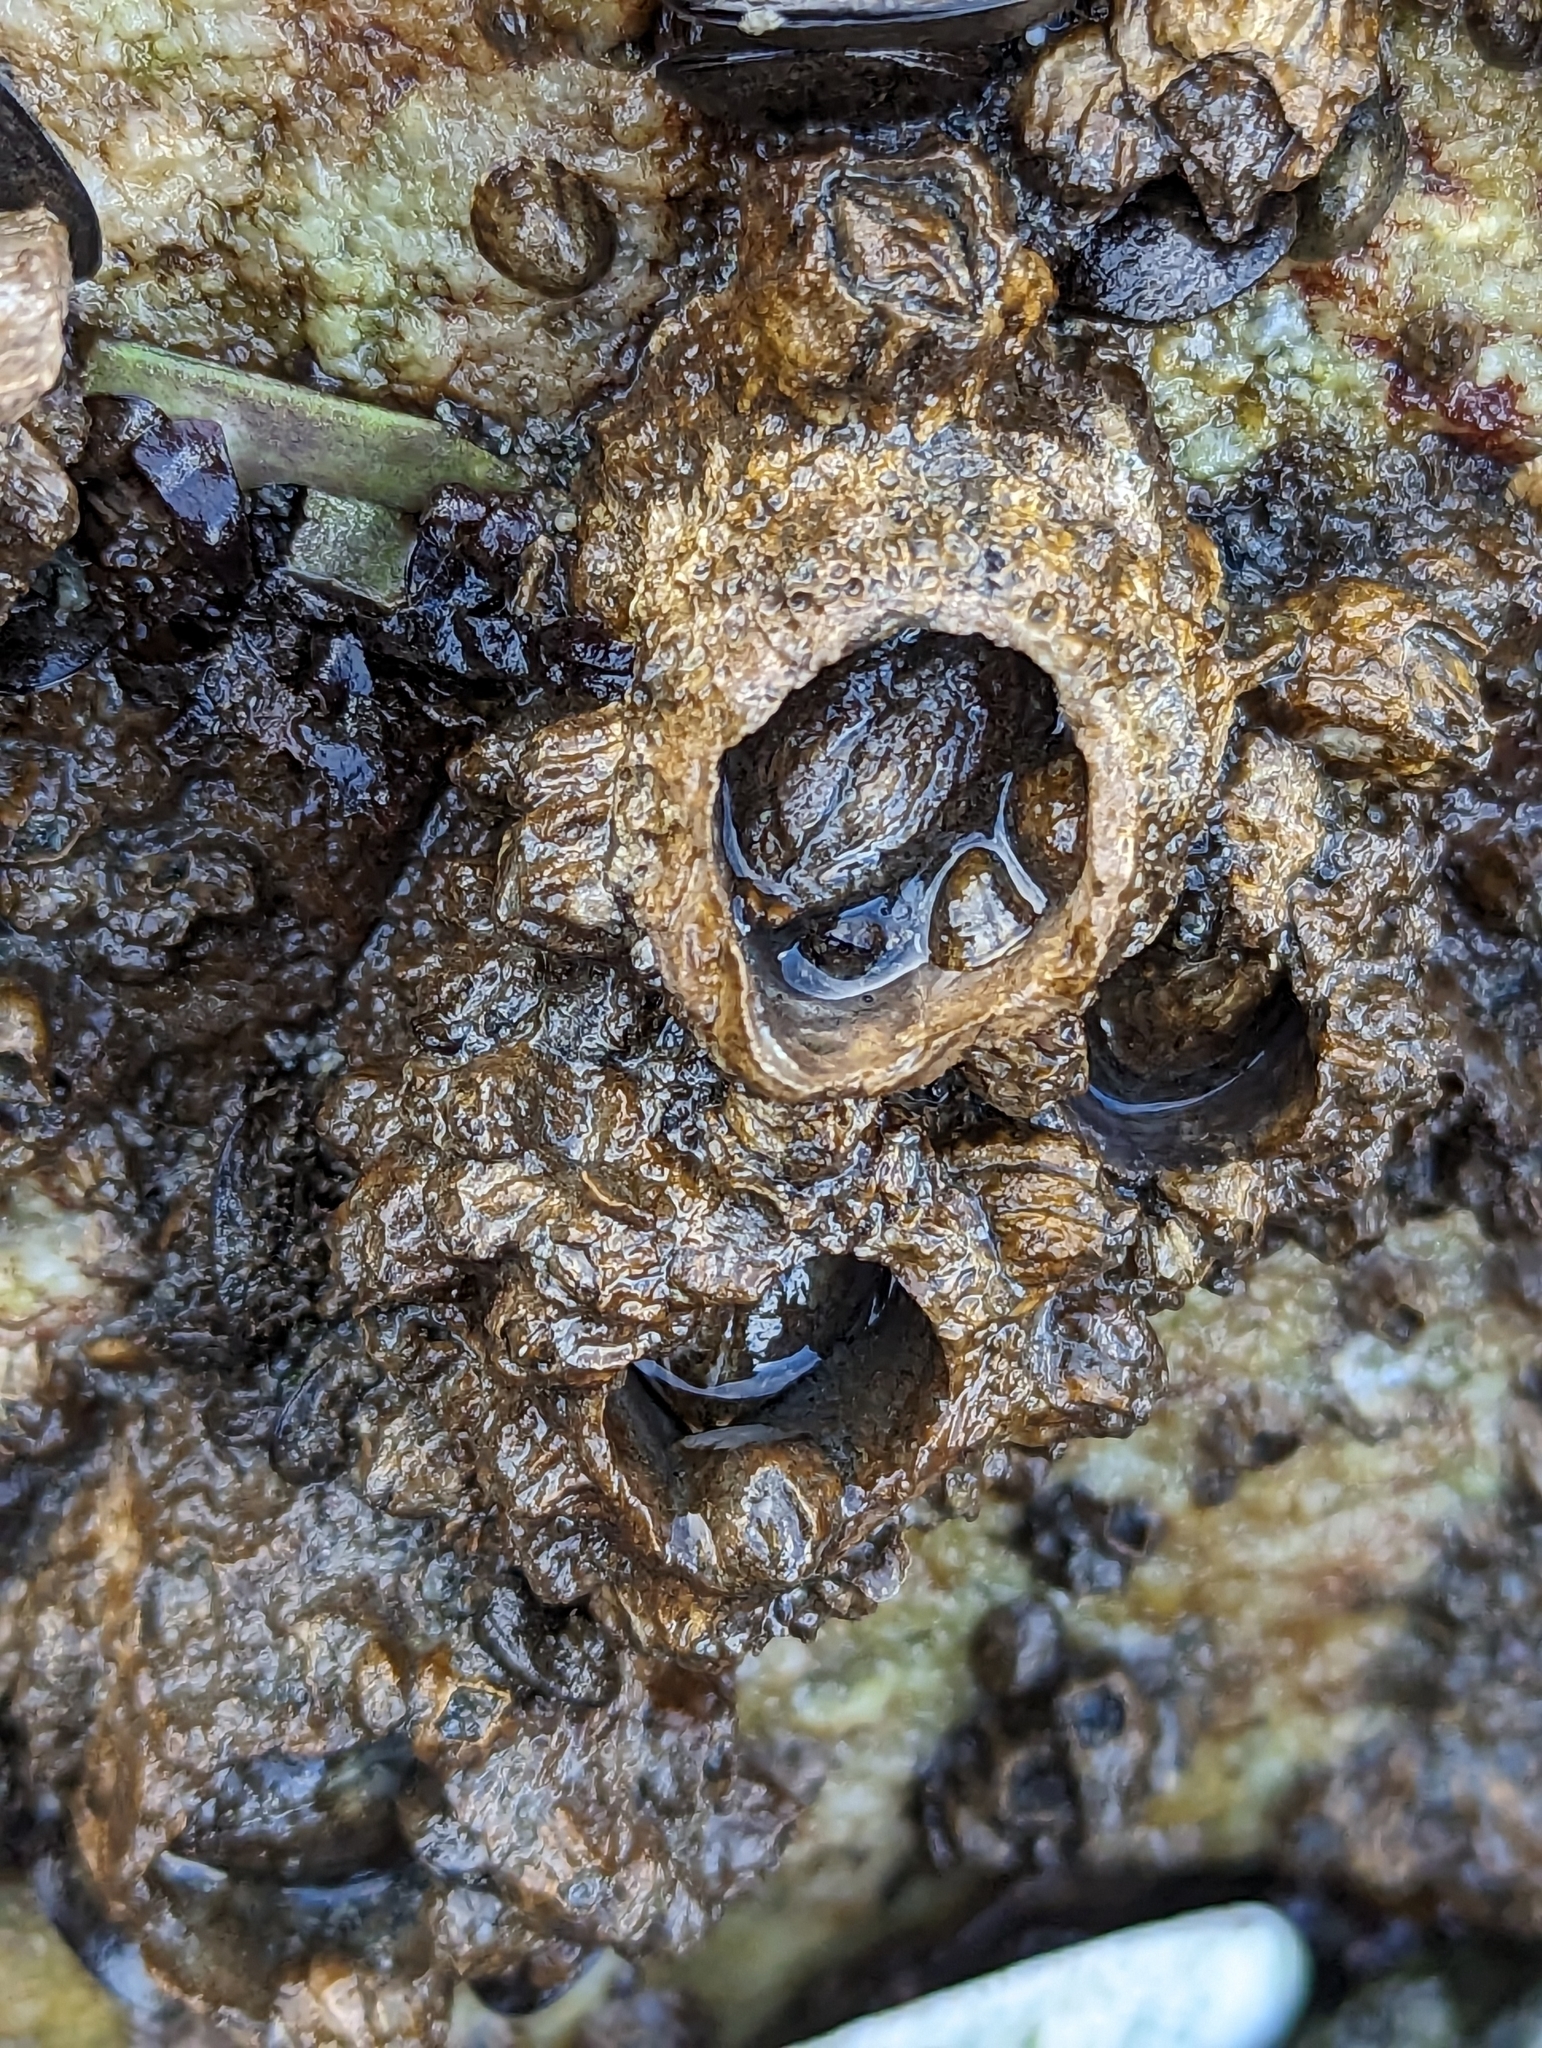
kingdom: Animalia
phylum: Arthropoda
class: Maxillopoda
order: Sessilia
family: Archaeobalanidae
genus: Semibalanus
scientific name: Semibalanus cariosus
